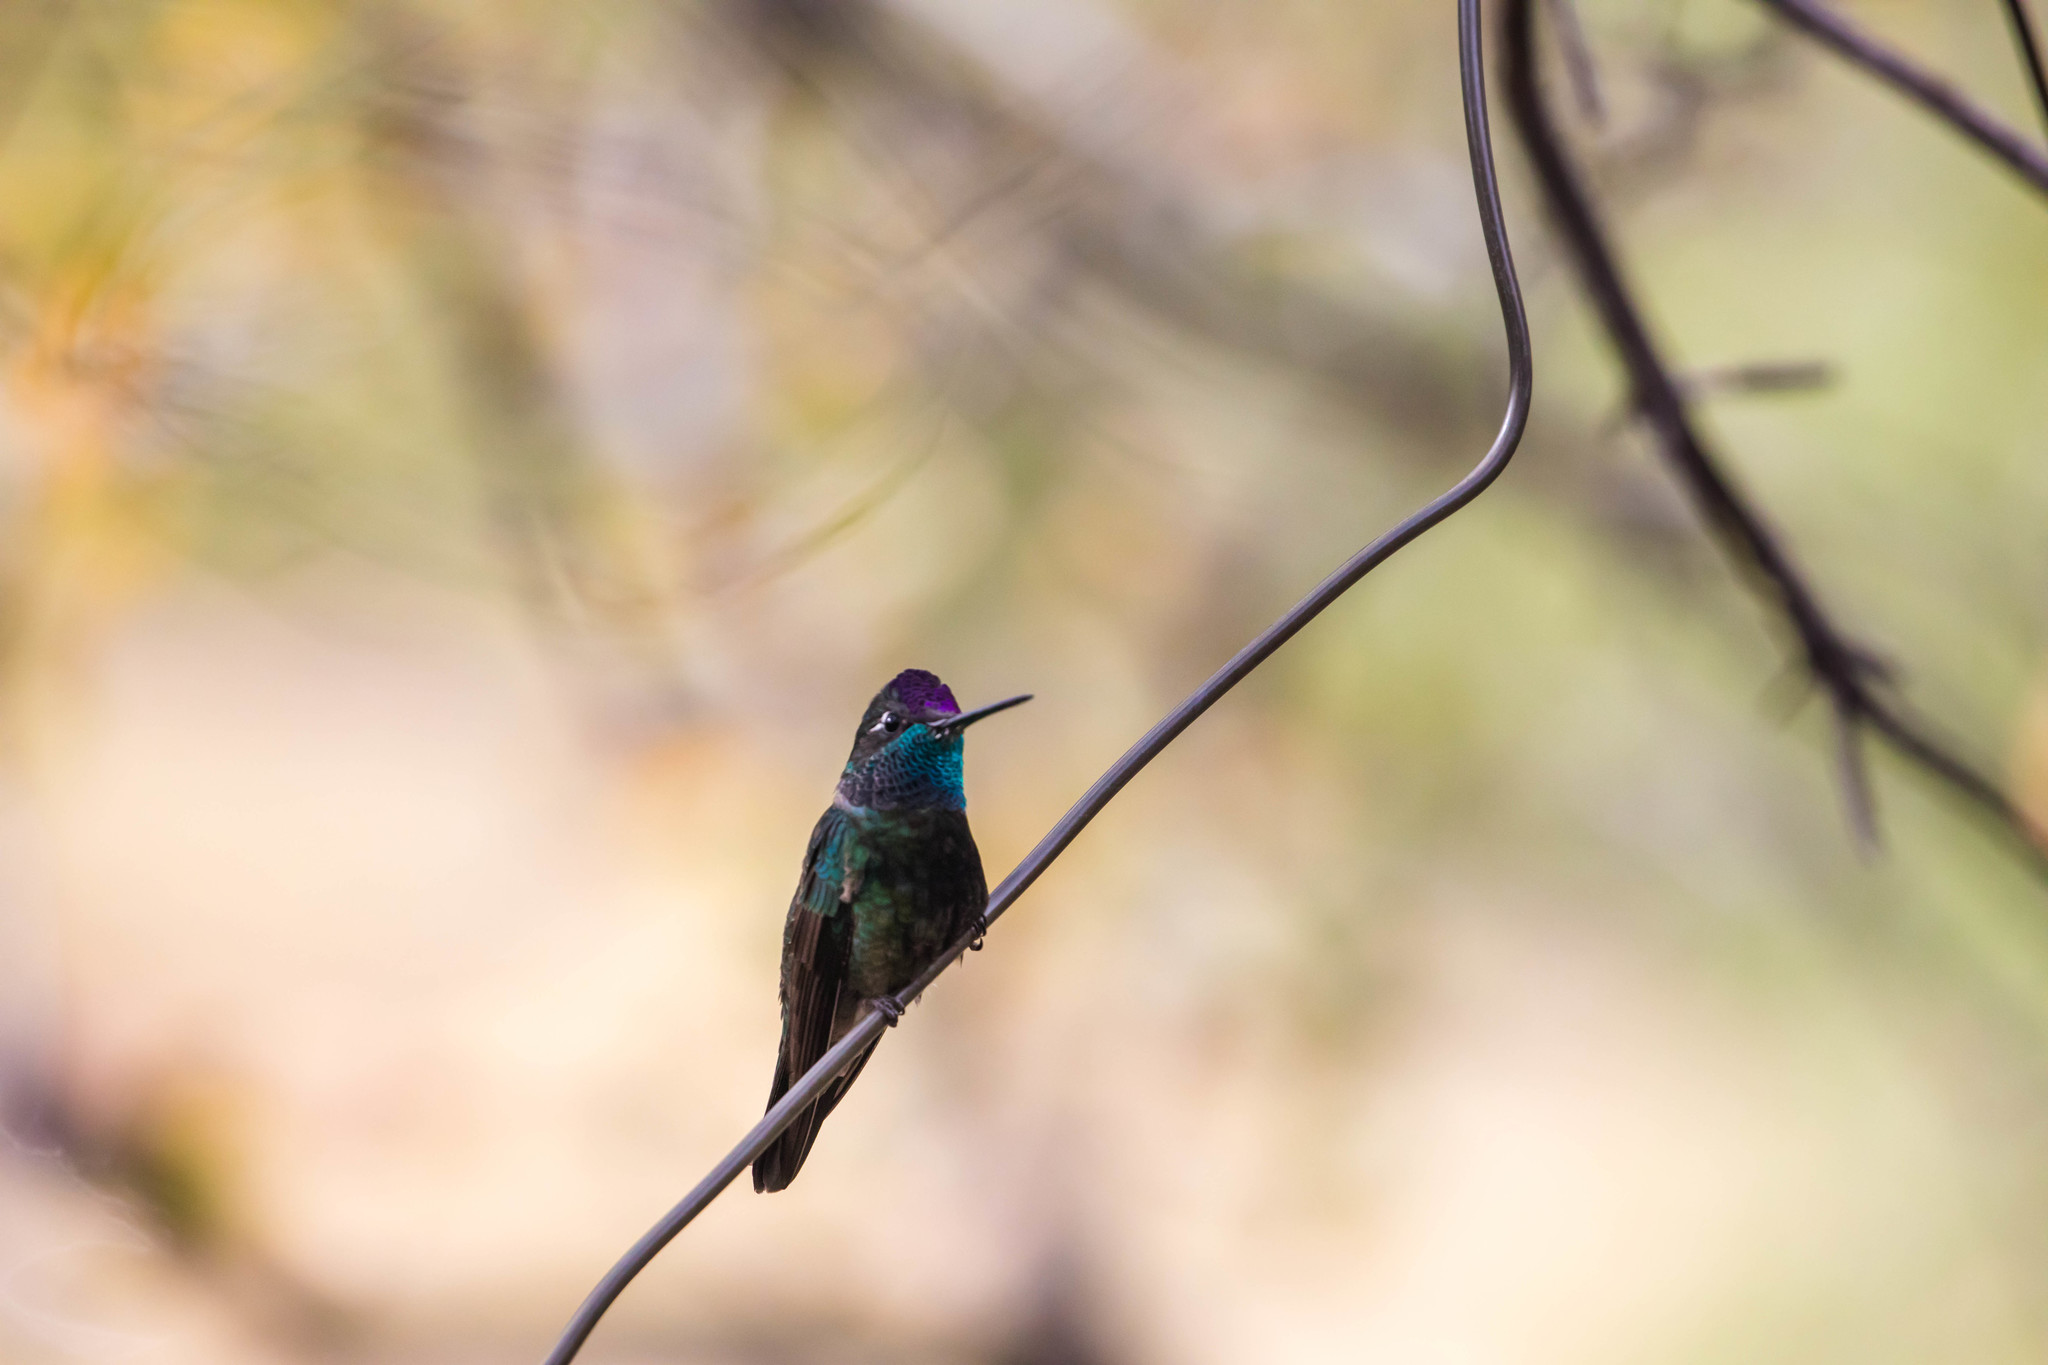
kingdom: Animalia
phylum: Chordata
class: Aves
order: Apodiformes
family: Trochilidae
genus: Eugenes
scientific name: Eugenes fulgens
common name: Magnificent hummingbird
